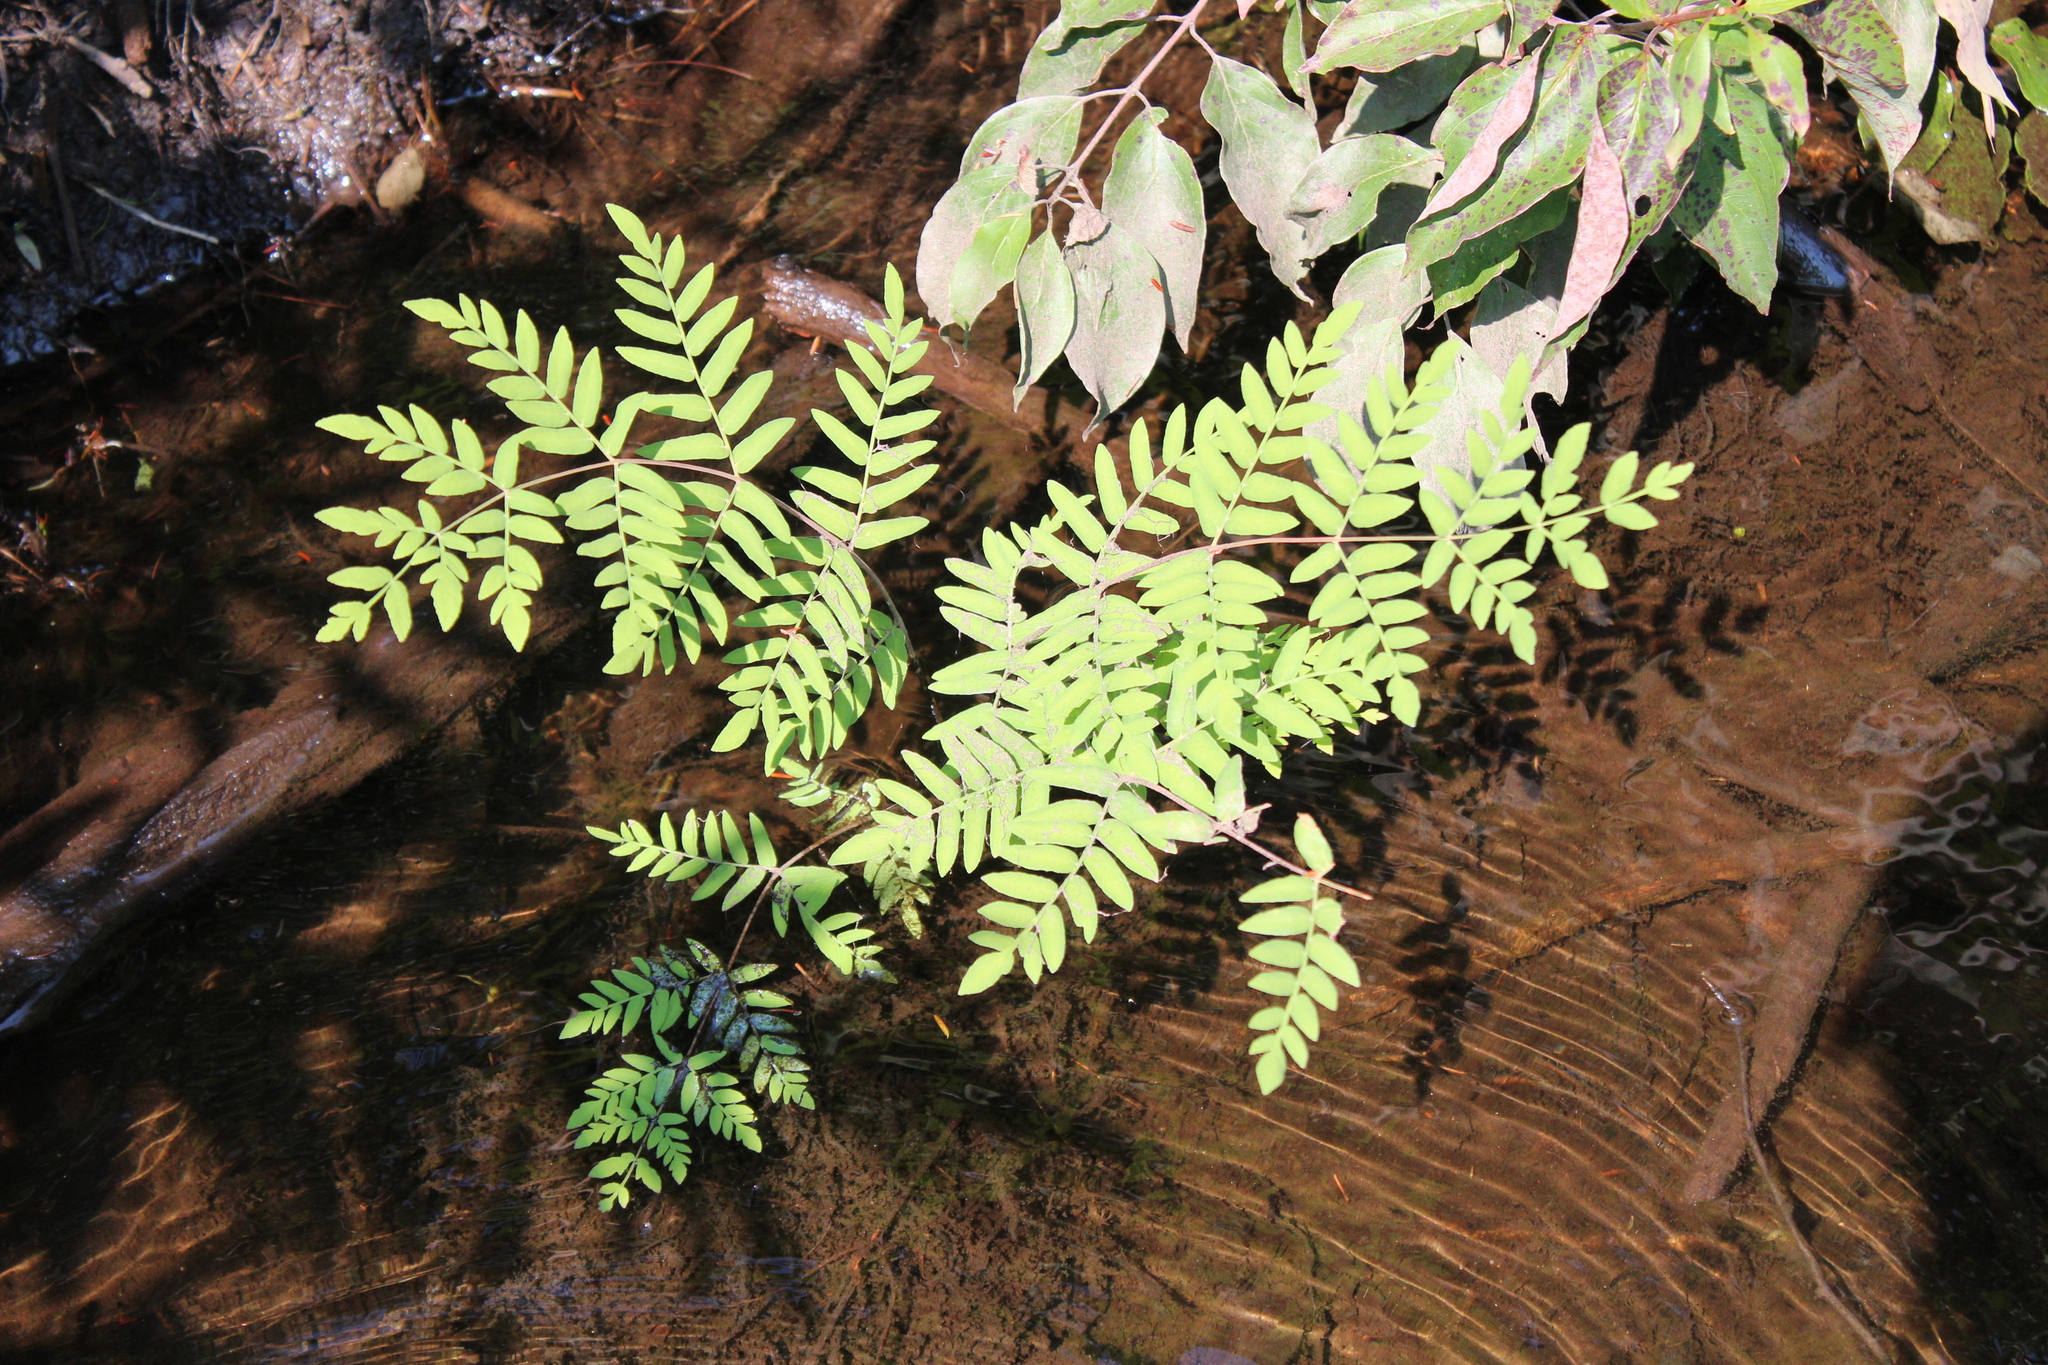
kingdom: Plantae
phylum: Tracheophyta
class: Polypodiopsida
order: Osmundales
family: Osmundaceae
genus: Osmunda
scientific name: Osmunda spectabilis
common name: American royal fern
